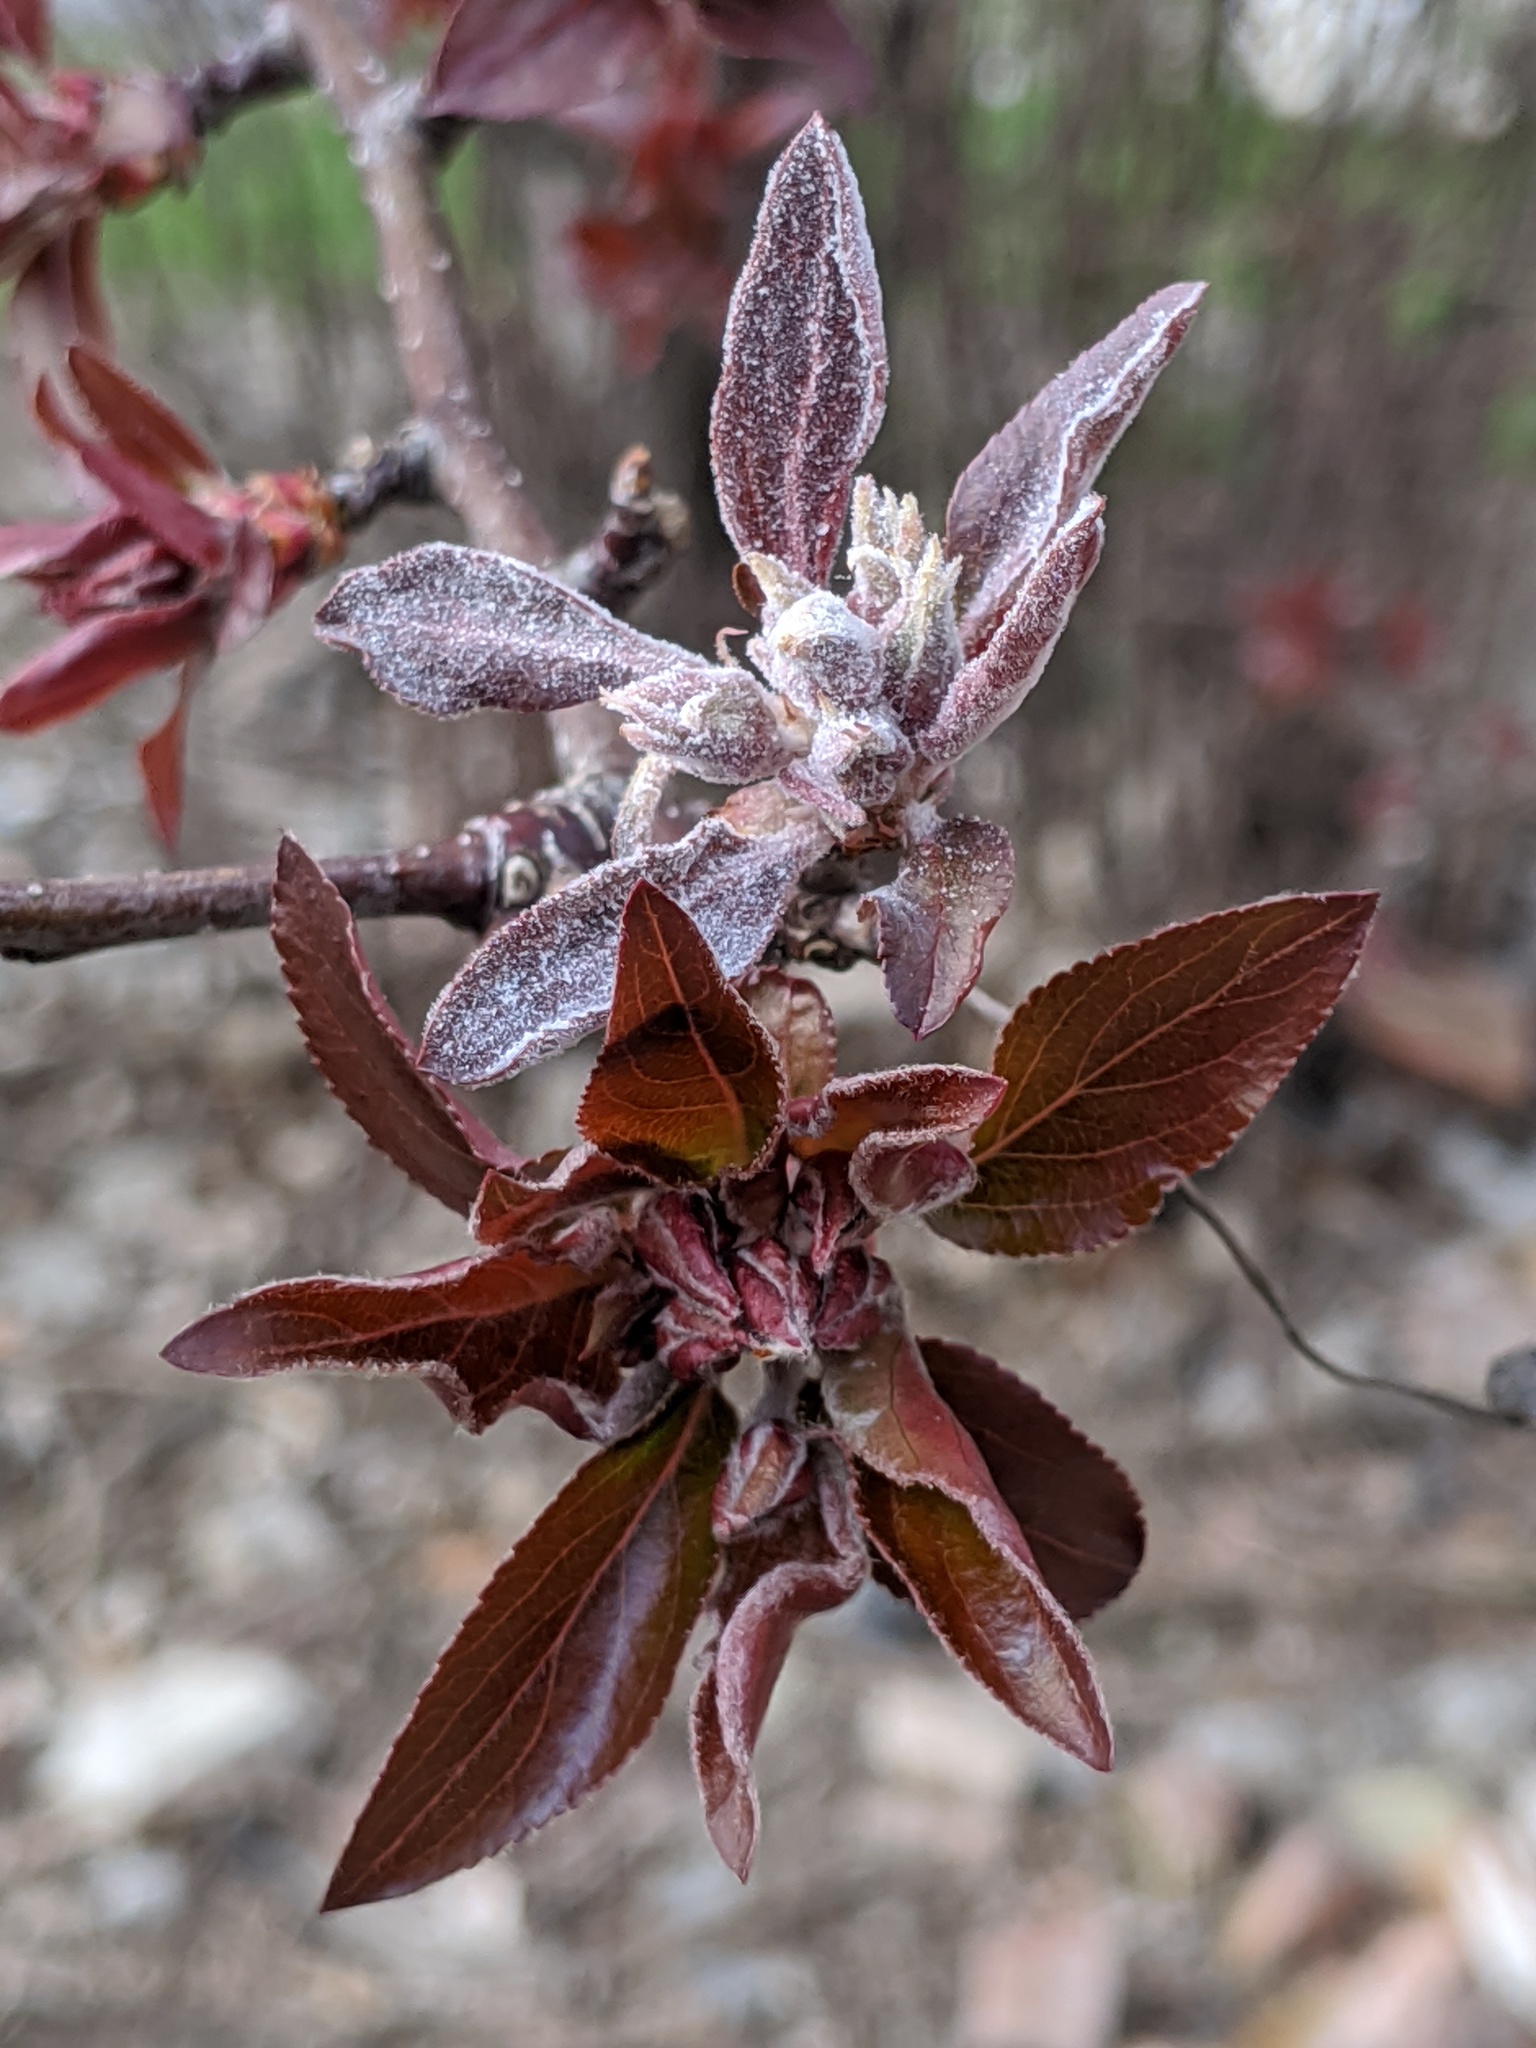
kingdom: Fungi
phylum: Ascomycota
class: Leotiomycetes
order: Helotiales
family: Erysiphaceae
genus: Podosphaera
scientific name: Podosphaera leucotricha
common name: Apple powdery mildew
